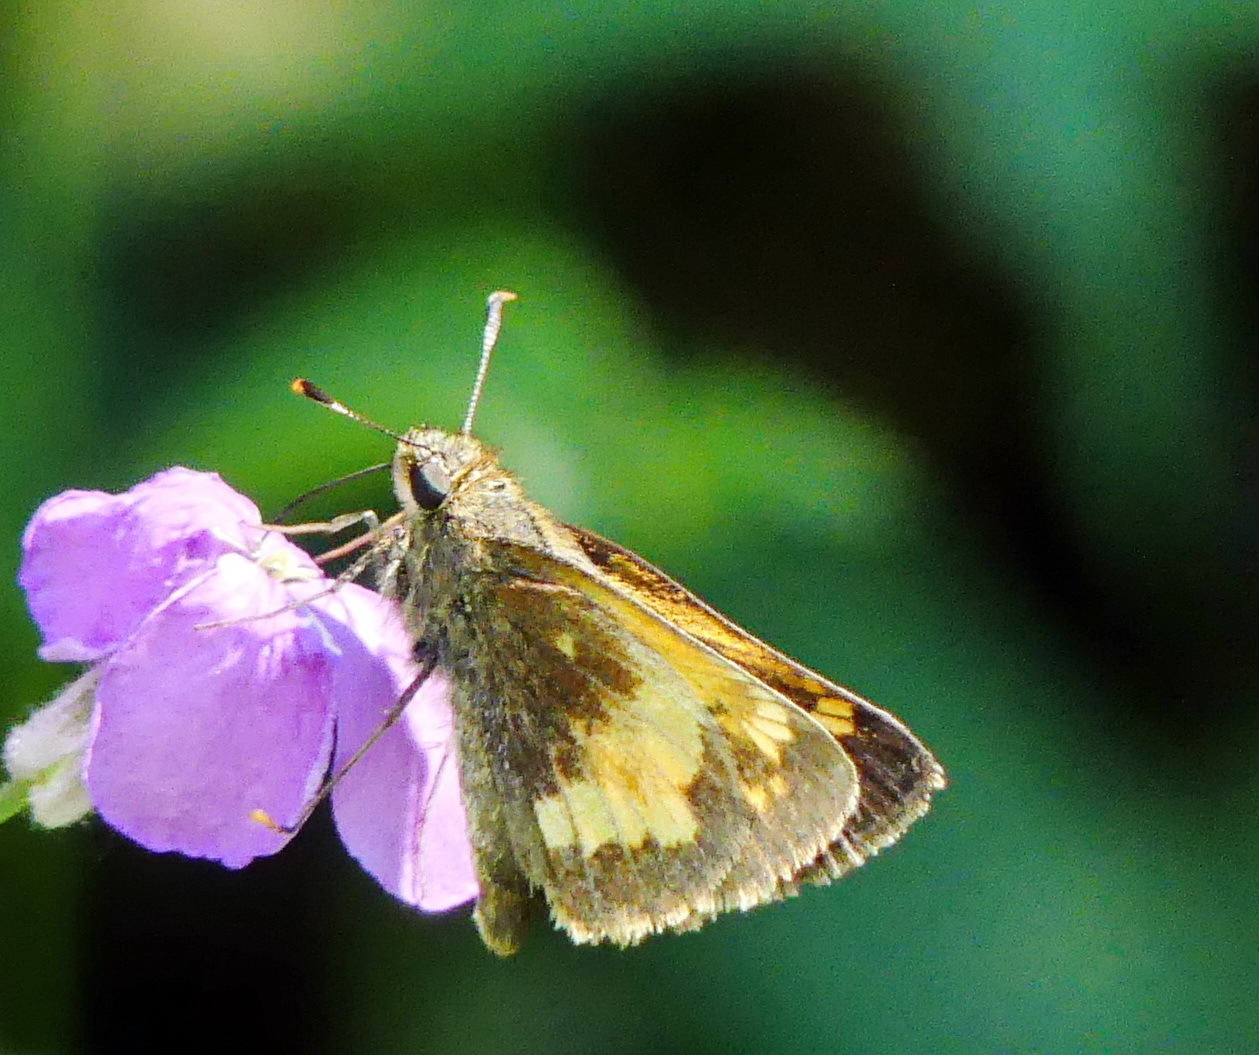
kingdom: Animalia
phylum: Arthropoda
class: Insecta
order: Lepidoptera
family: Hesperiidae
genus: Lon
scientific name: Lon hobomok
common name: Hobomok skipper
